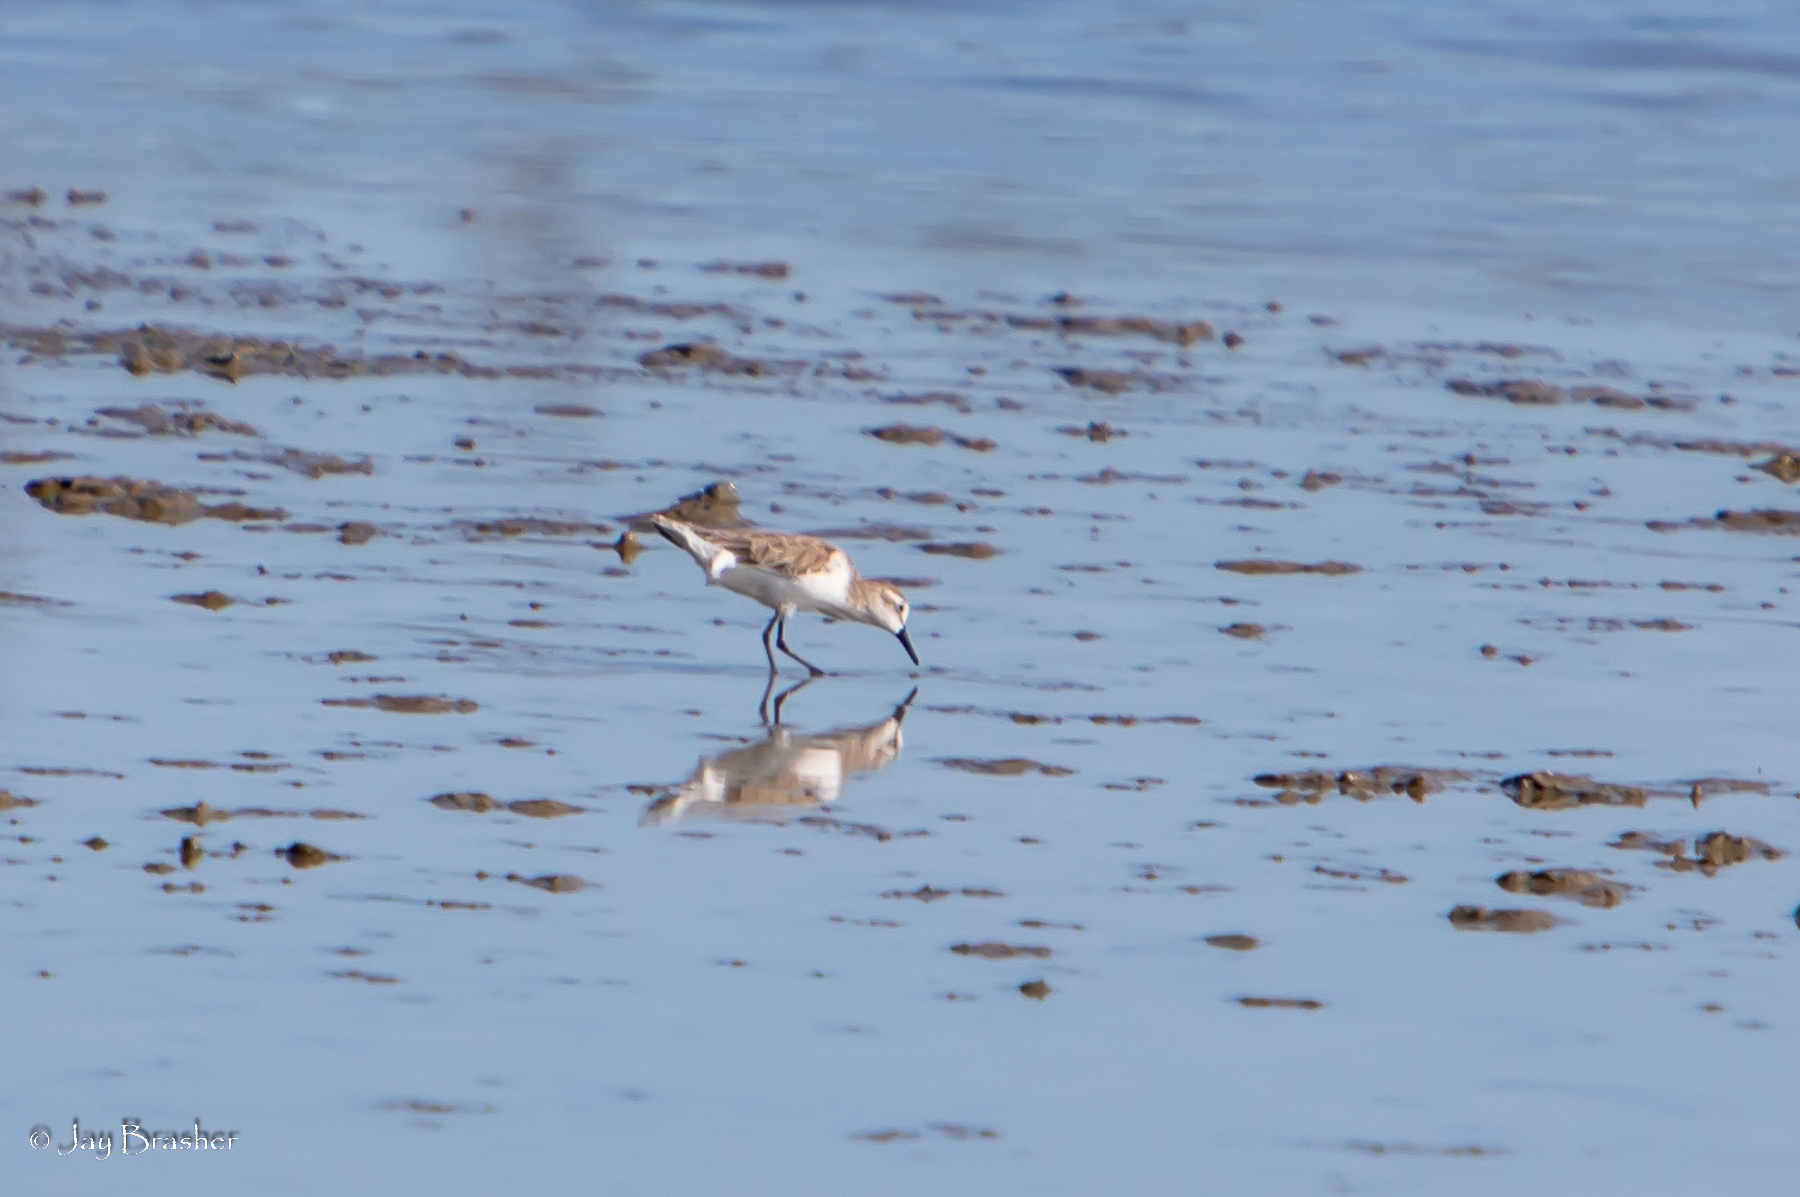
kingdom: Animalia
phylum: Chordata
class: Aves
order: Charadriiformes
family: Scolopacidae
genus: Calidris
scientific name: Calidris pusilla
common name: Semipalmated sandpiper
